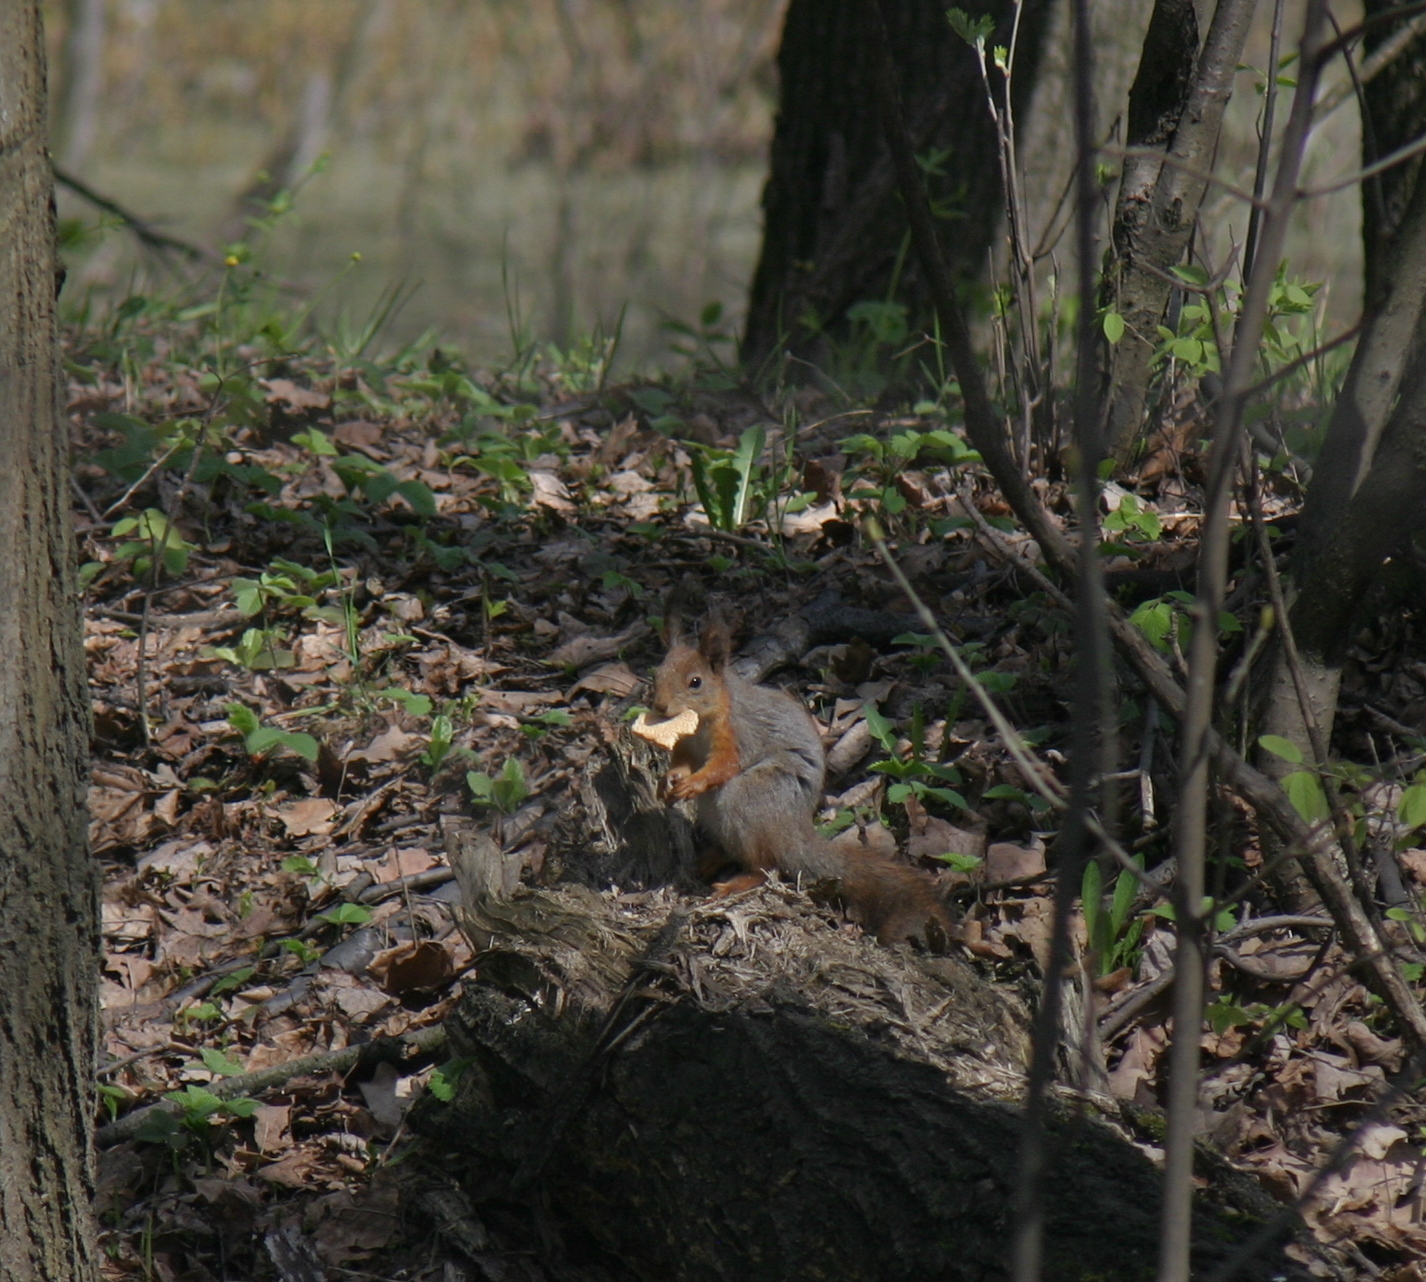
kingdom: Animalia
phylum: Chordata
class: Mammalia
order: Rodentia
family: Sciuridae
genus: Sciurus
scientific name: Sciurus vulgaris
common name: Eurasian red squirrel
